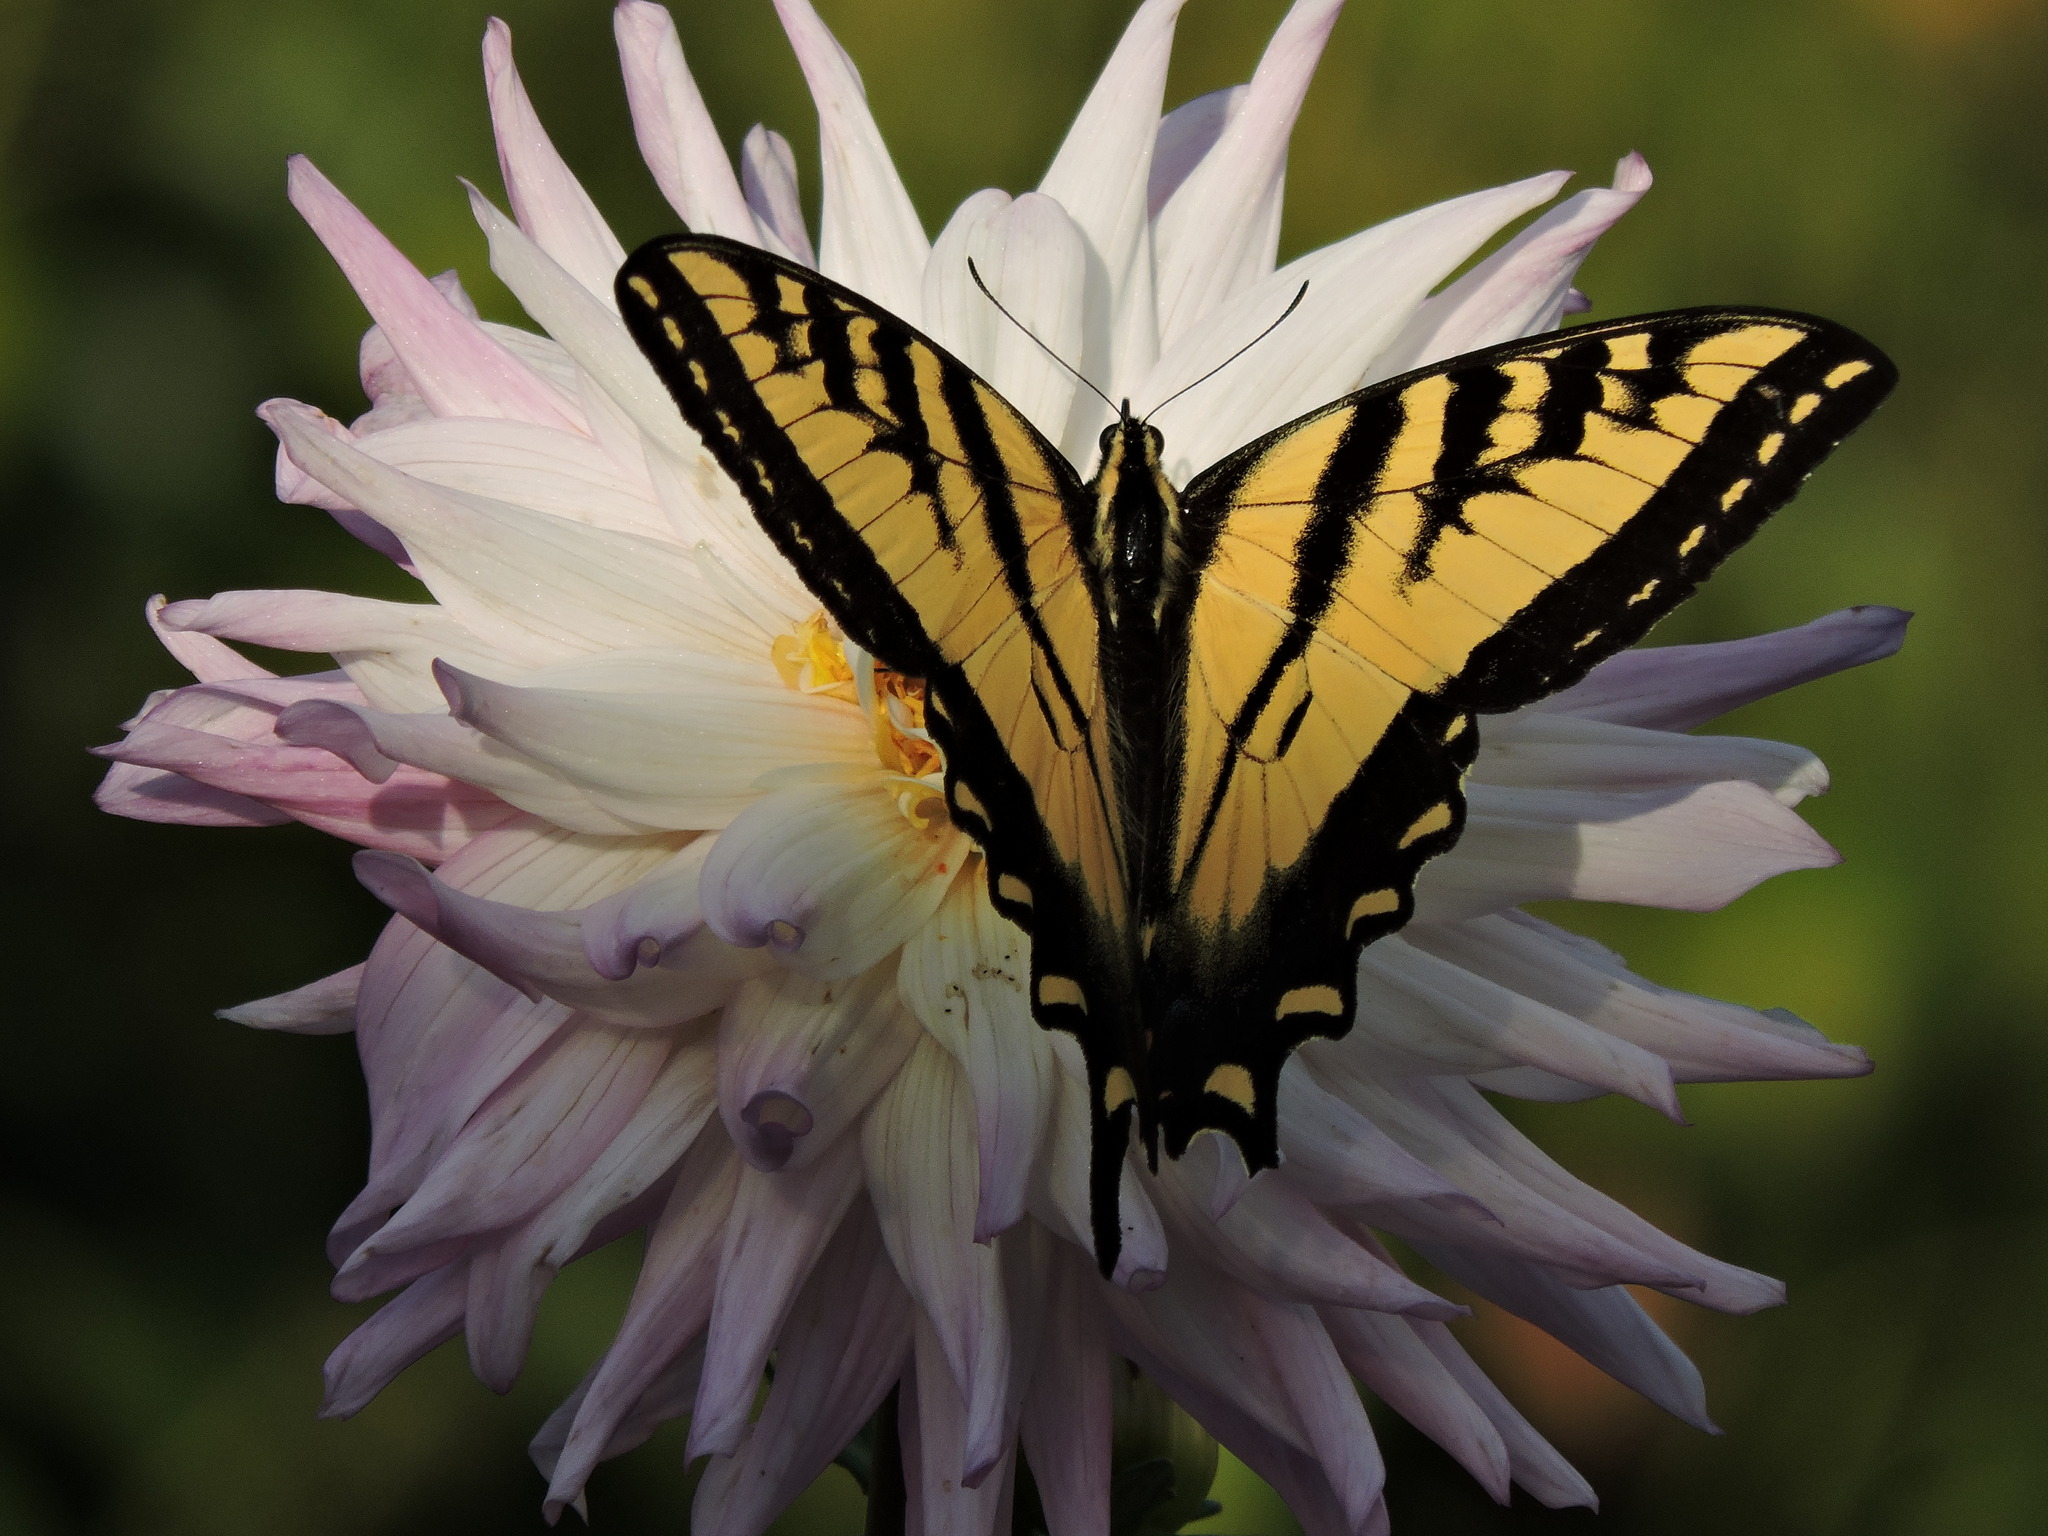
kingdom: Animalia
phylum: Arthropoda
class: Insecta
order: Lepidoptera
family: Papilionidae
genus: Papilio
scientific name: Papilio rutulus
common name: Western tiger swallowtail
